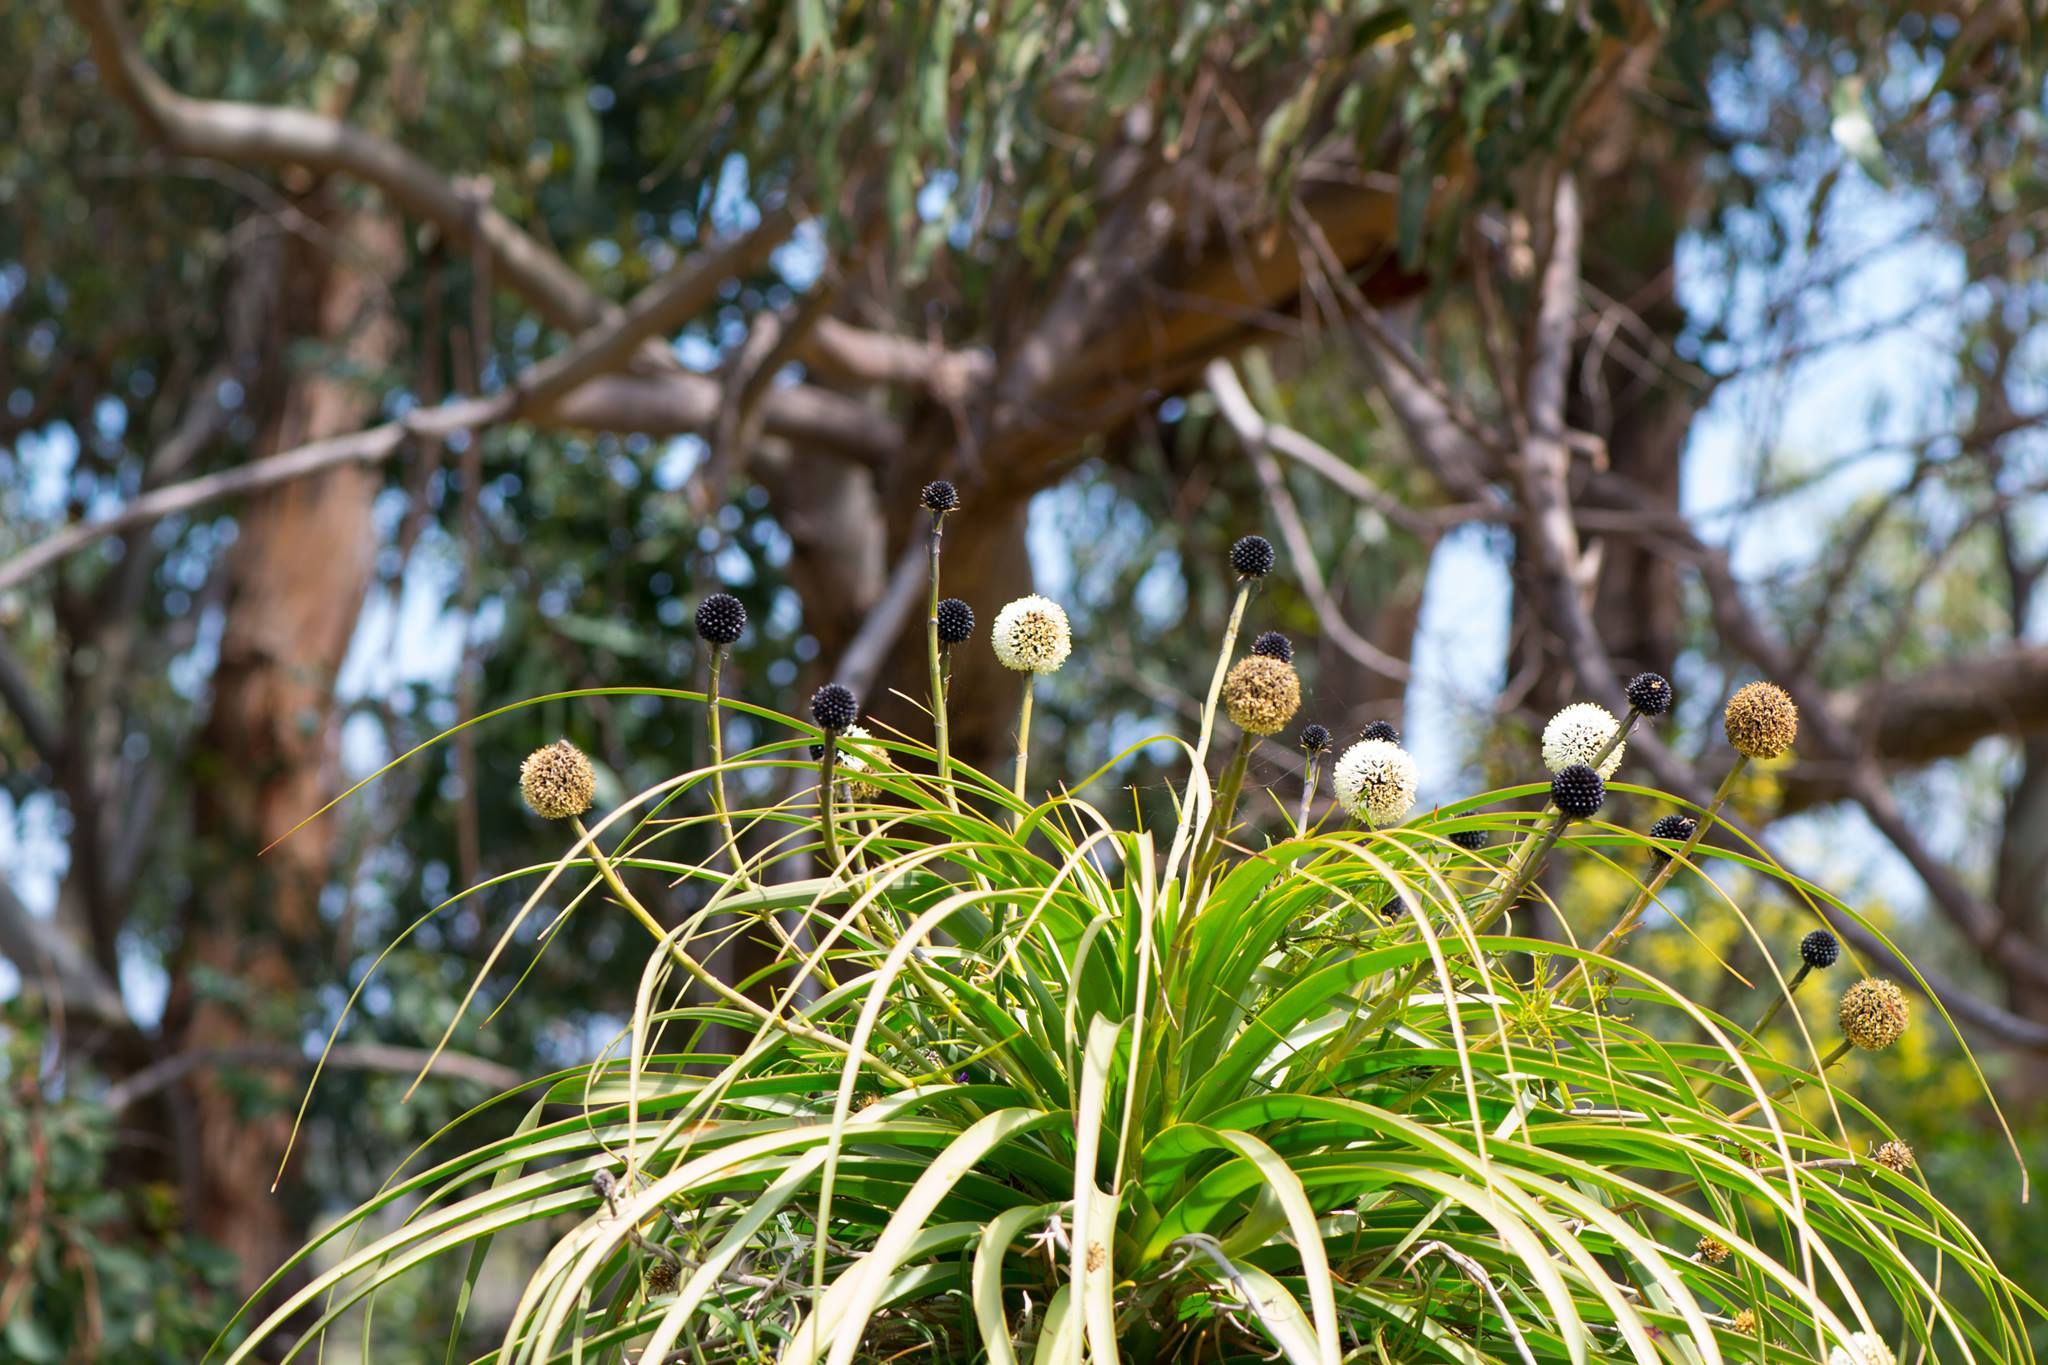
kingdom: Plantae
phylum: Tracheophyta
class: Liliopsida
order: Arecales
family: Dasypogonaceae
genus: Dasypogon
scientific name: Dasypogon hookeri
